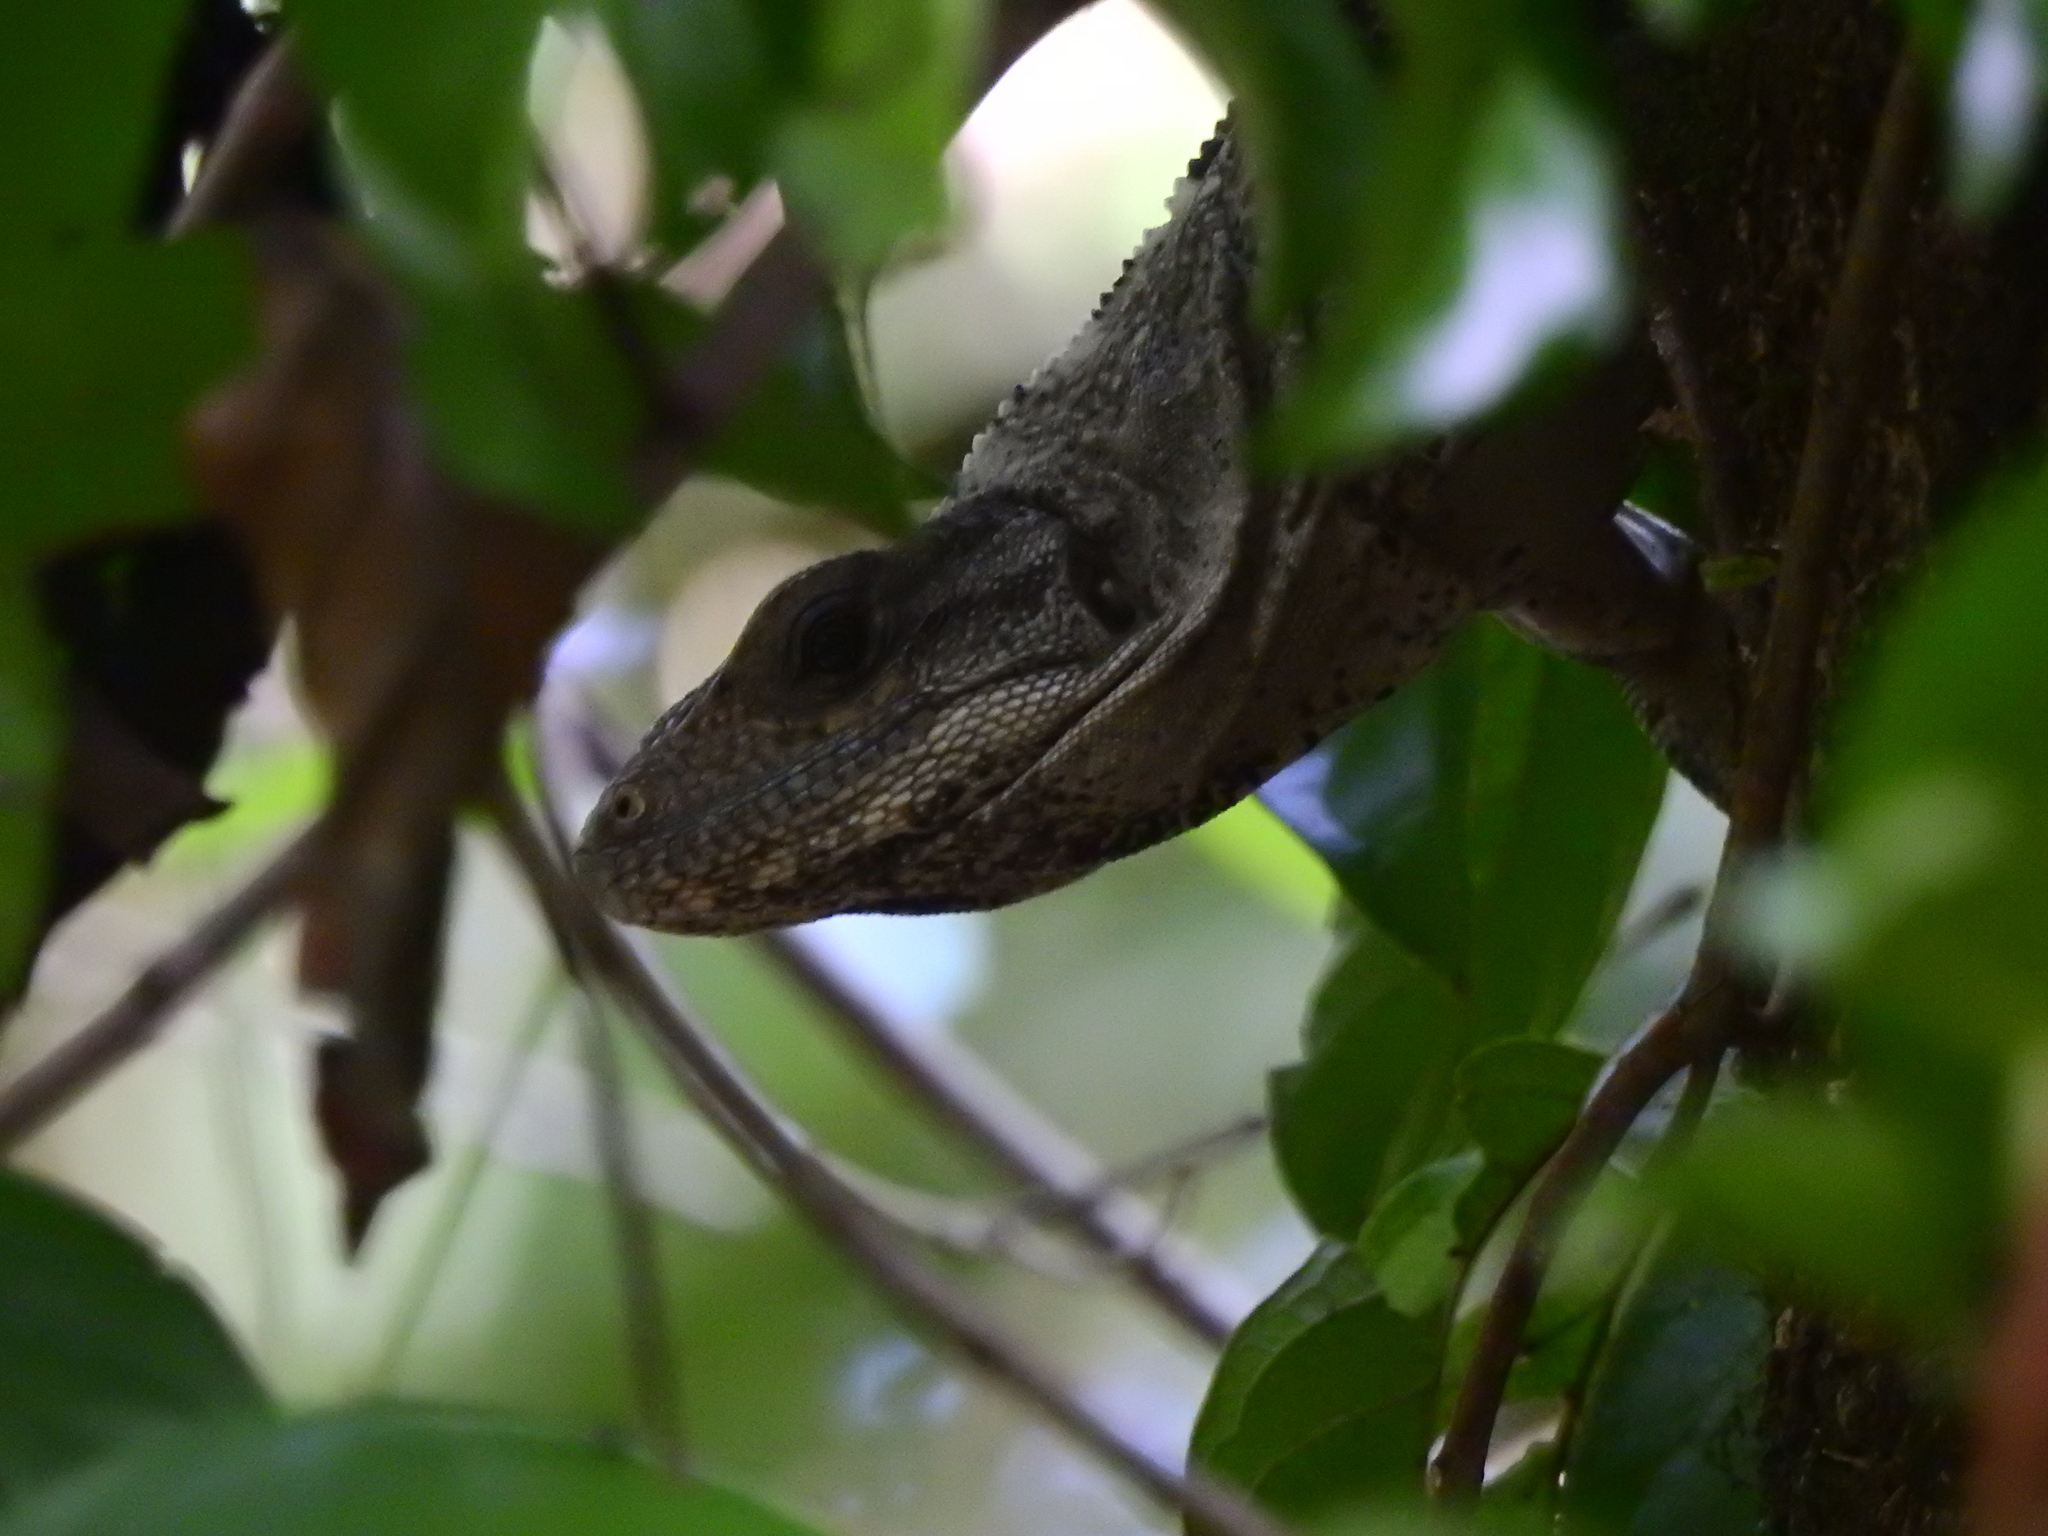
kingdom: Animalia
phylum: Chordata
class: Squamata
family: Iguanidae
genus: Ctenosaura
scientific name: Ctenosaura similis
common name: Black spiny-tailed iguana
